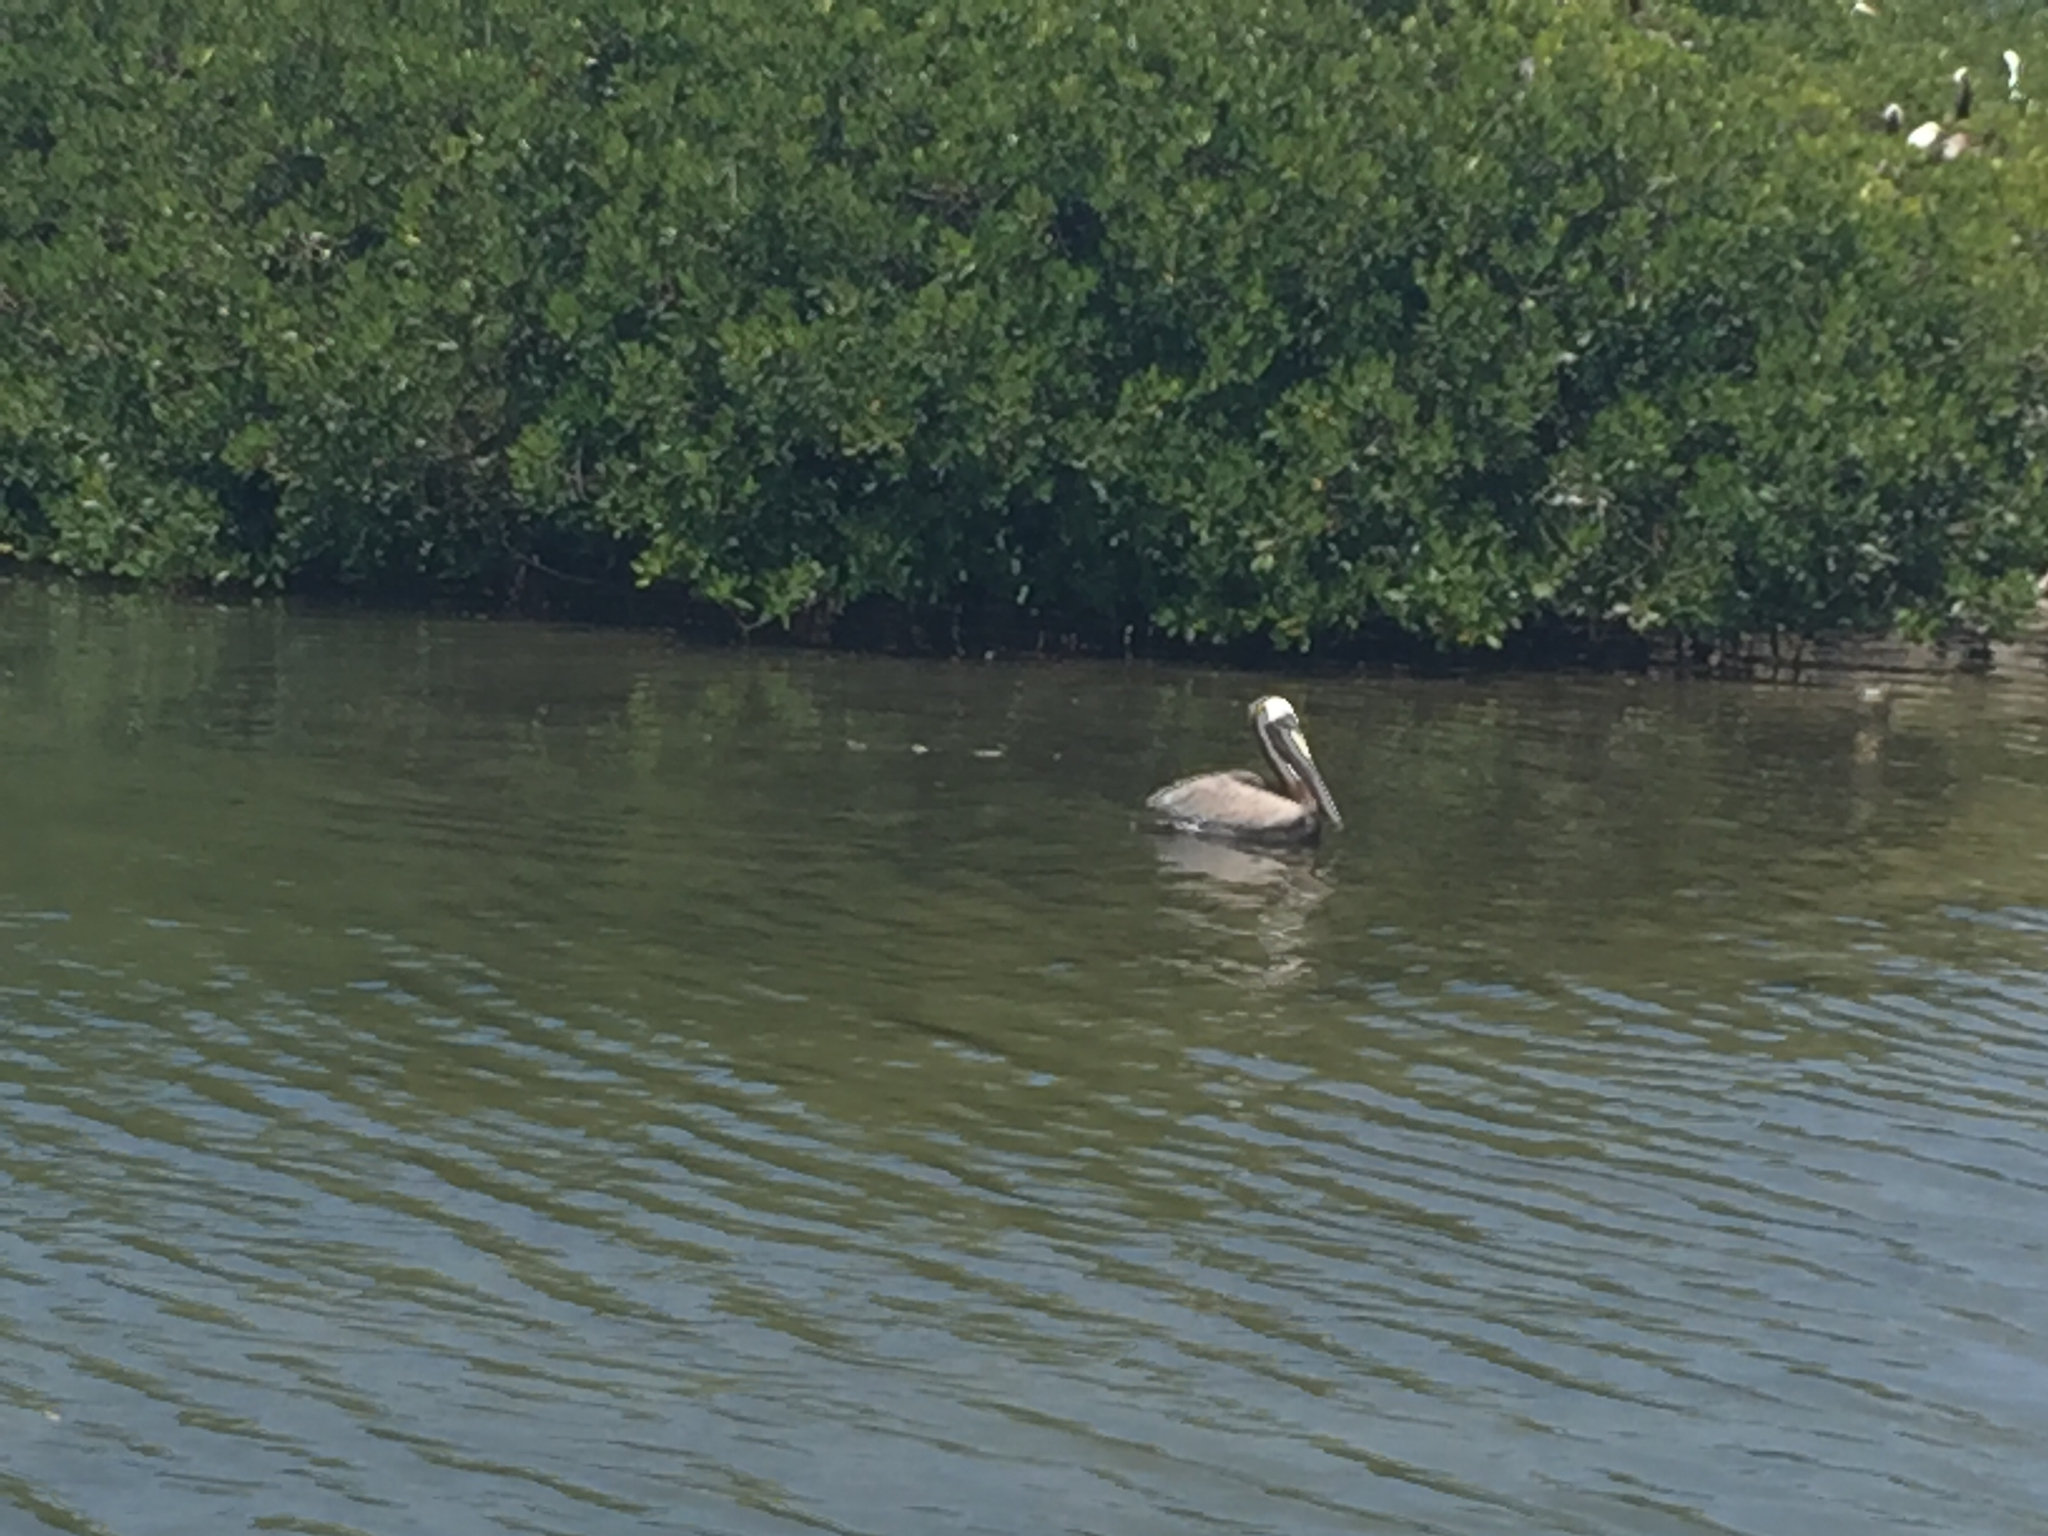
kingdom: Animalia
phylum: Chordata
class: Aves
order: Pelecaniformes
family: Pelecanidae
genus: Pelecanus
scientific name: Pelecanus occidentalis
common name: Brown pelican
